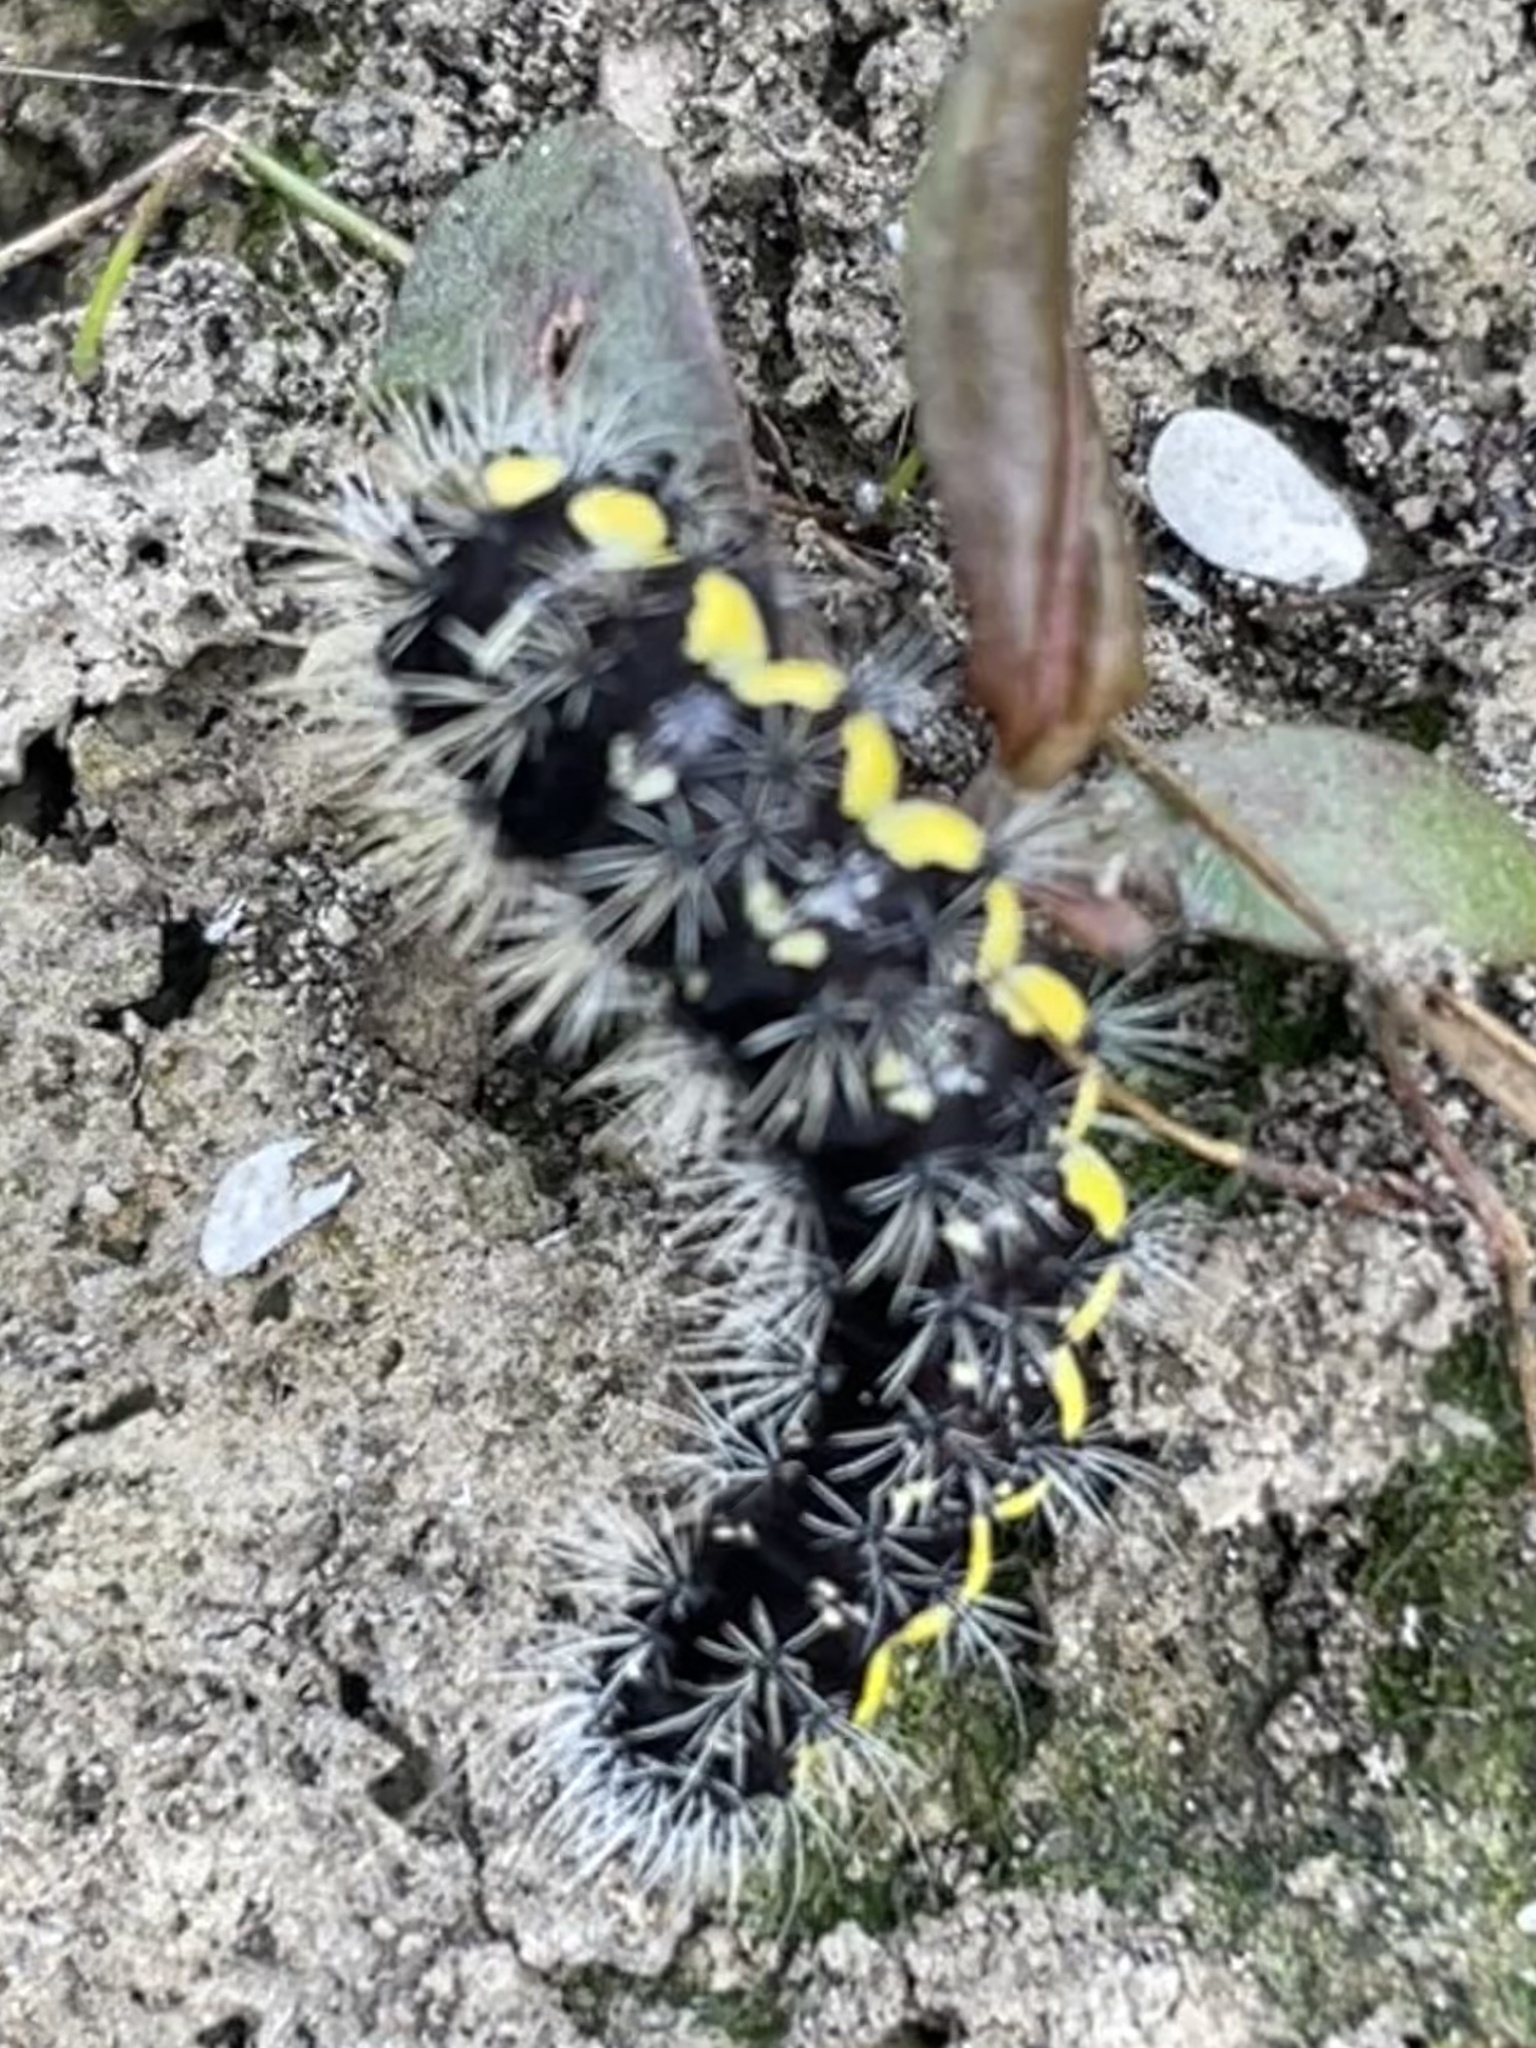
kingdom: Animalia
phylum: Arthropoda
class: Insecta
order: Lepidoptera
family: Noctuidae
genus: Acronicta
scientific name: Acronicta oblinita
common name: Smeared dagger
